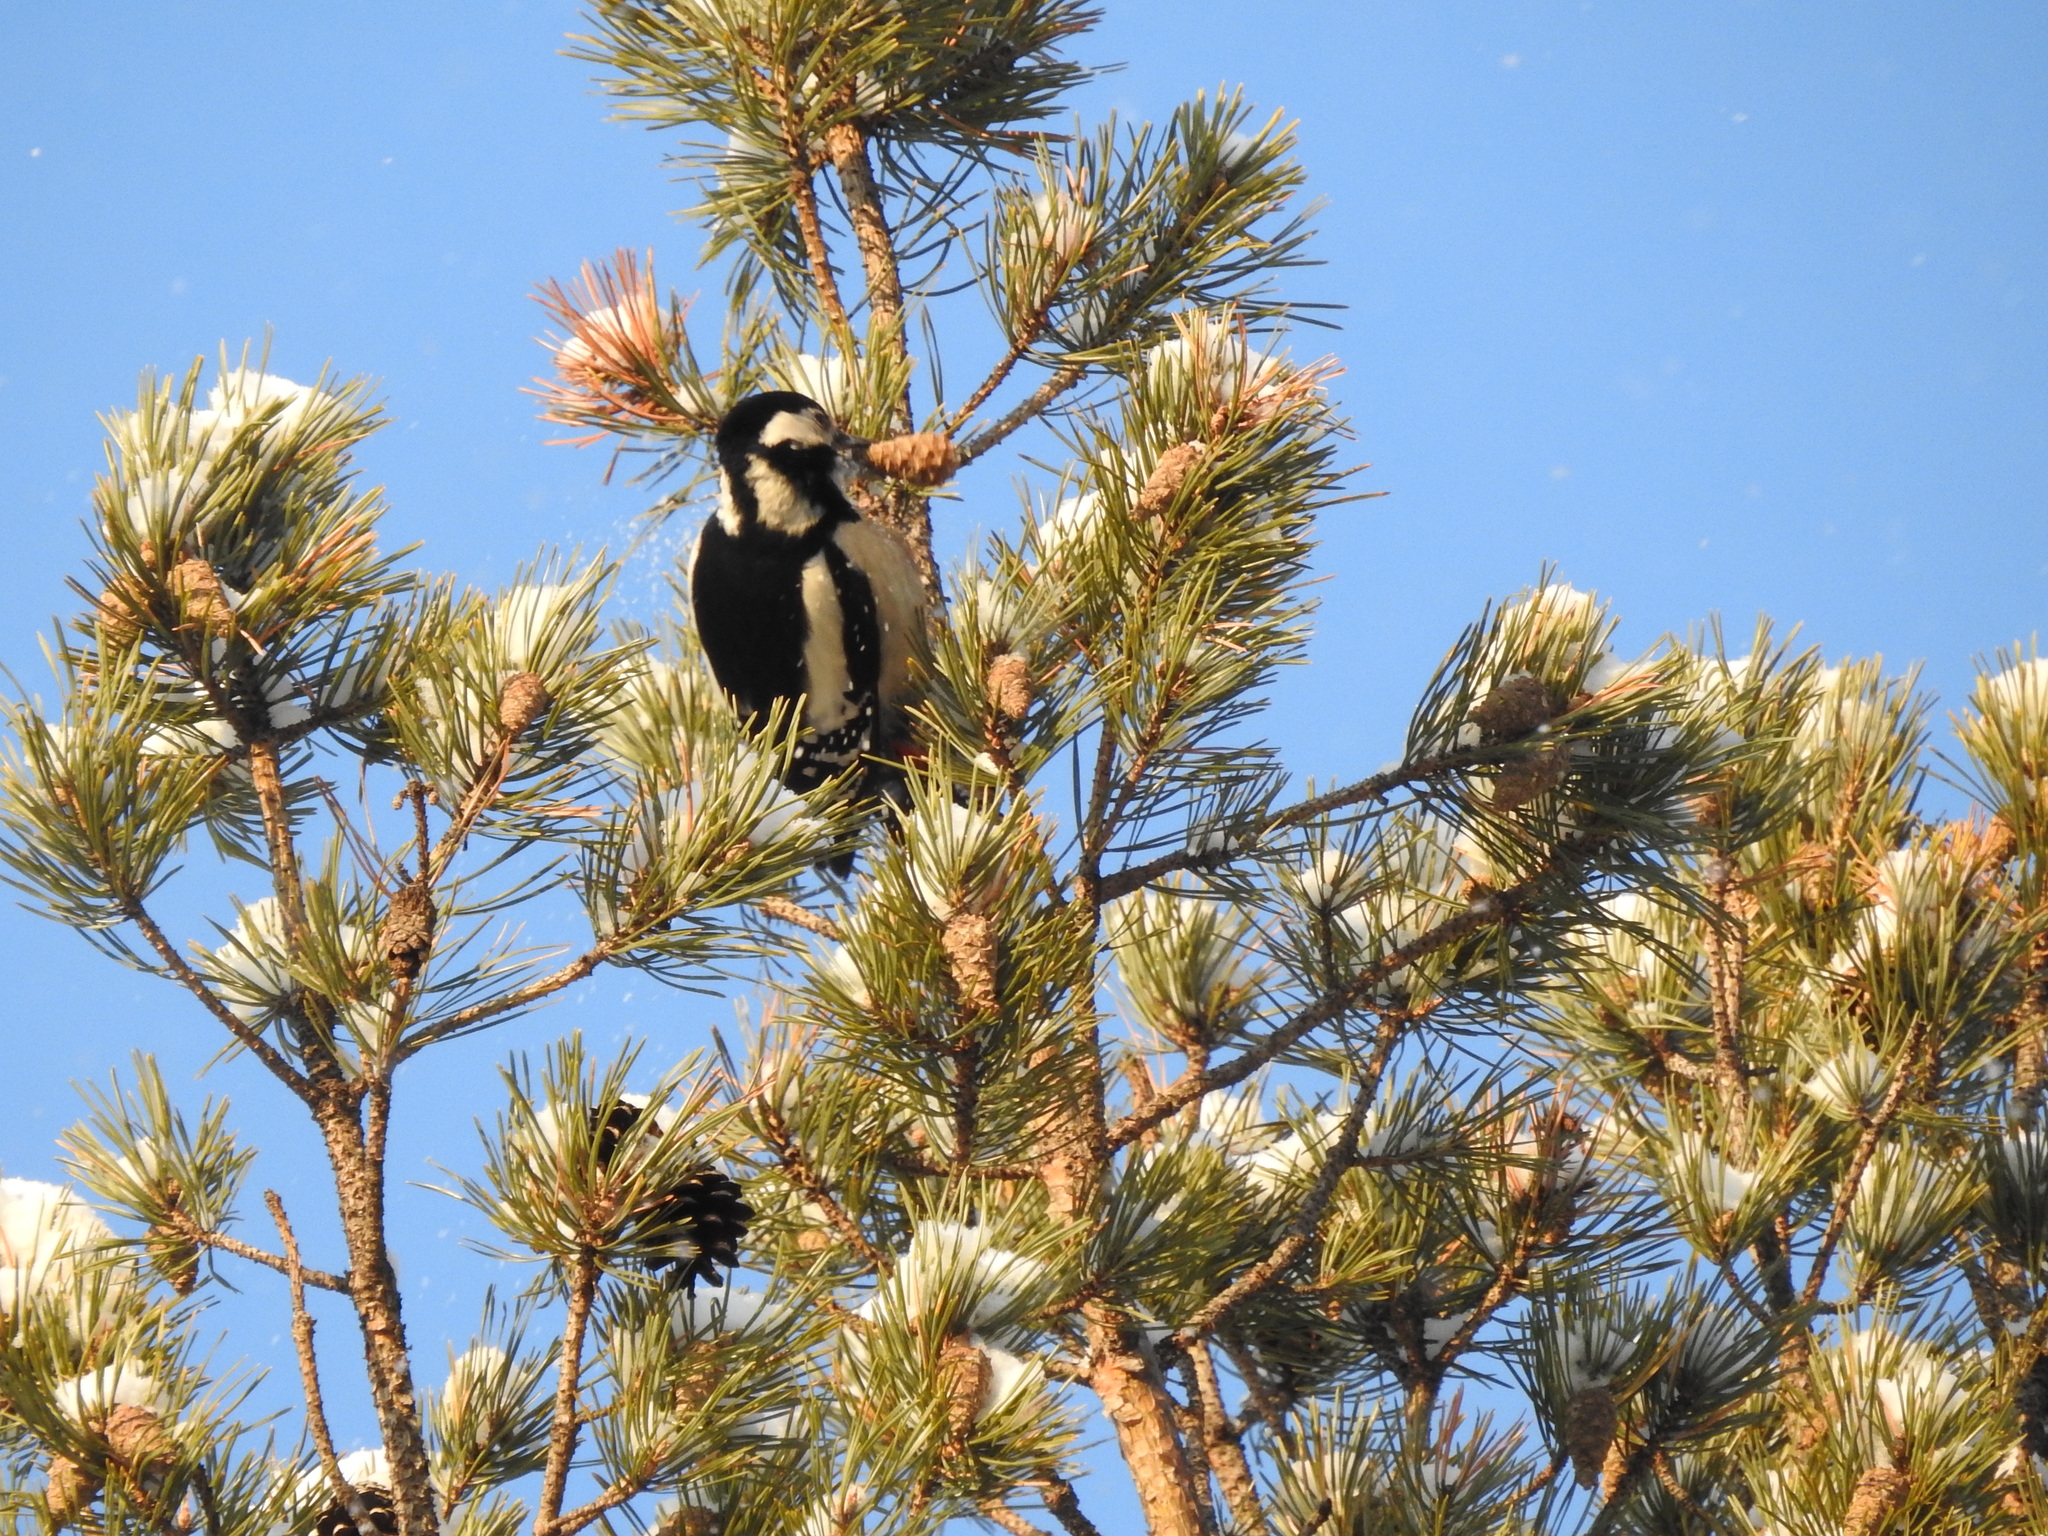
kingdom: Animalia
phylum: Chordata
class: Aves
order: Piciformes
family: Picidae
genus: Dendrocopos
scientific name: Dendrocopos major
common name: Great spotted woodpecker
